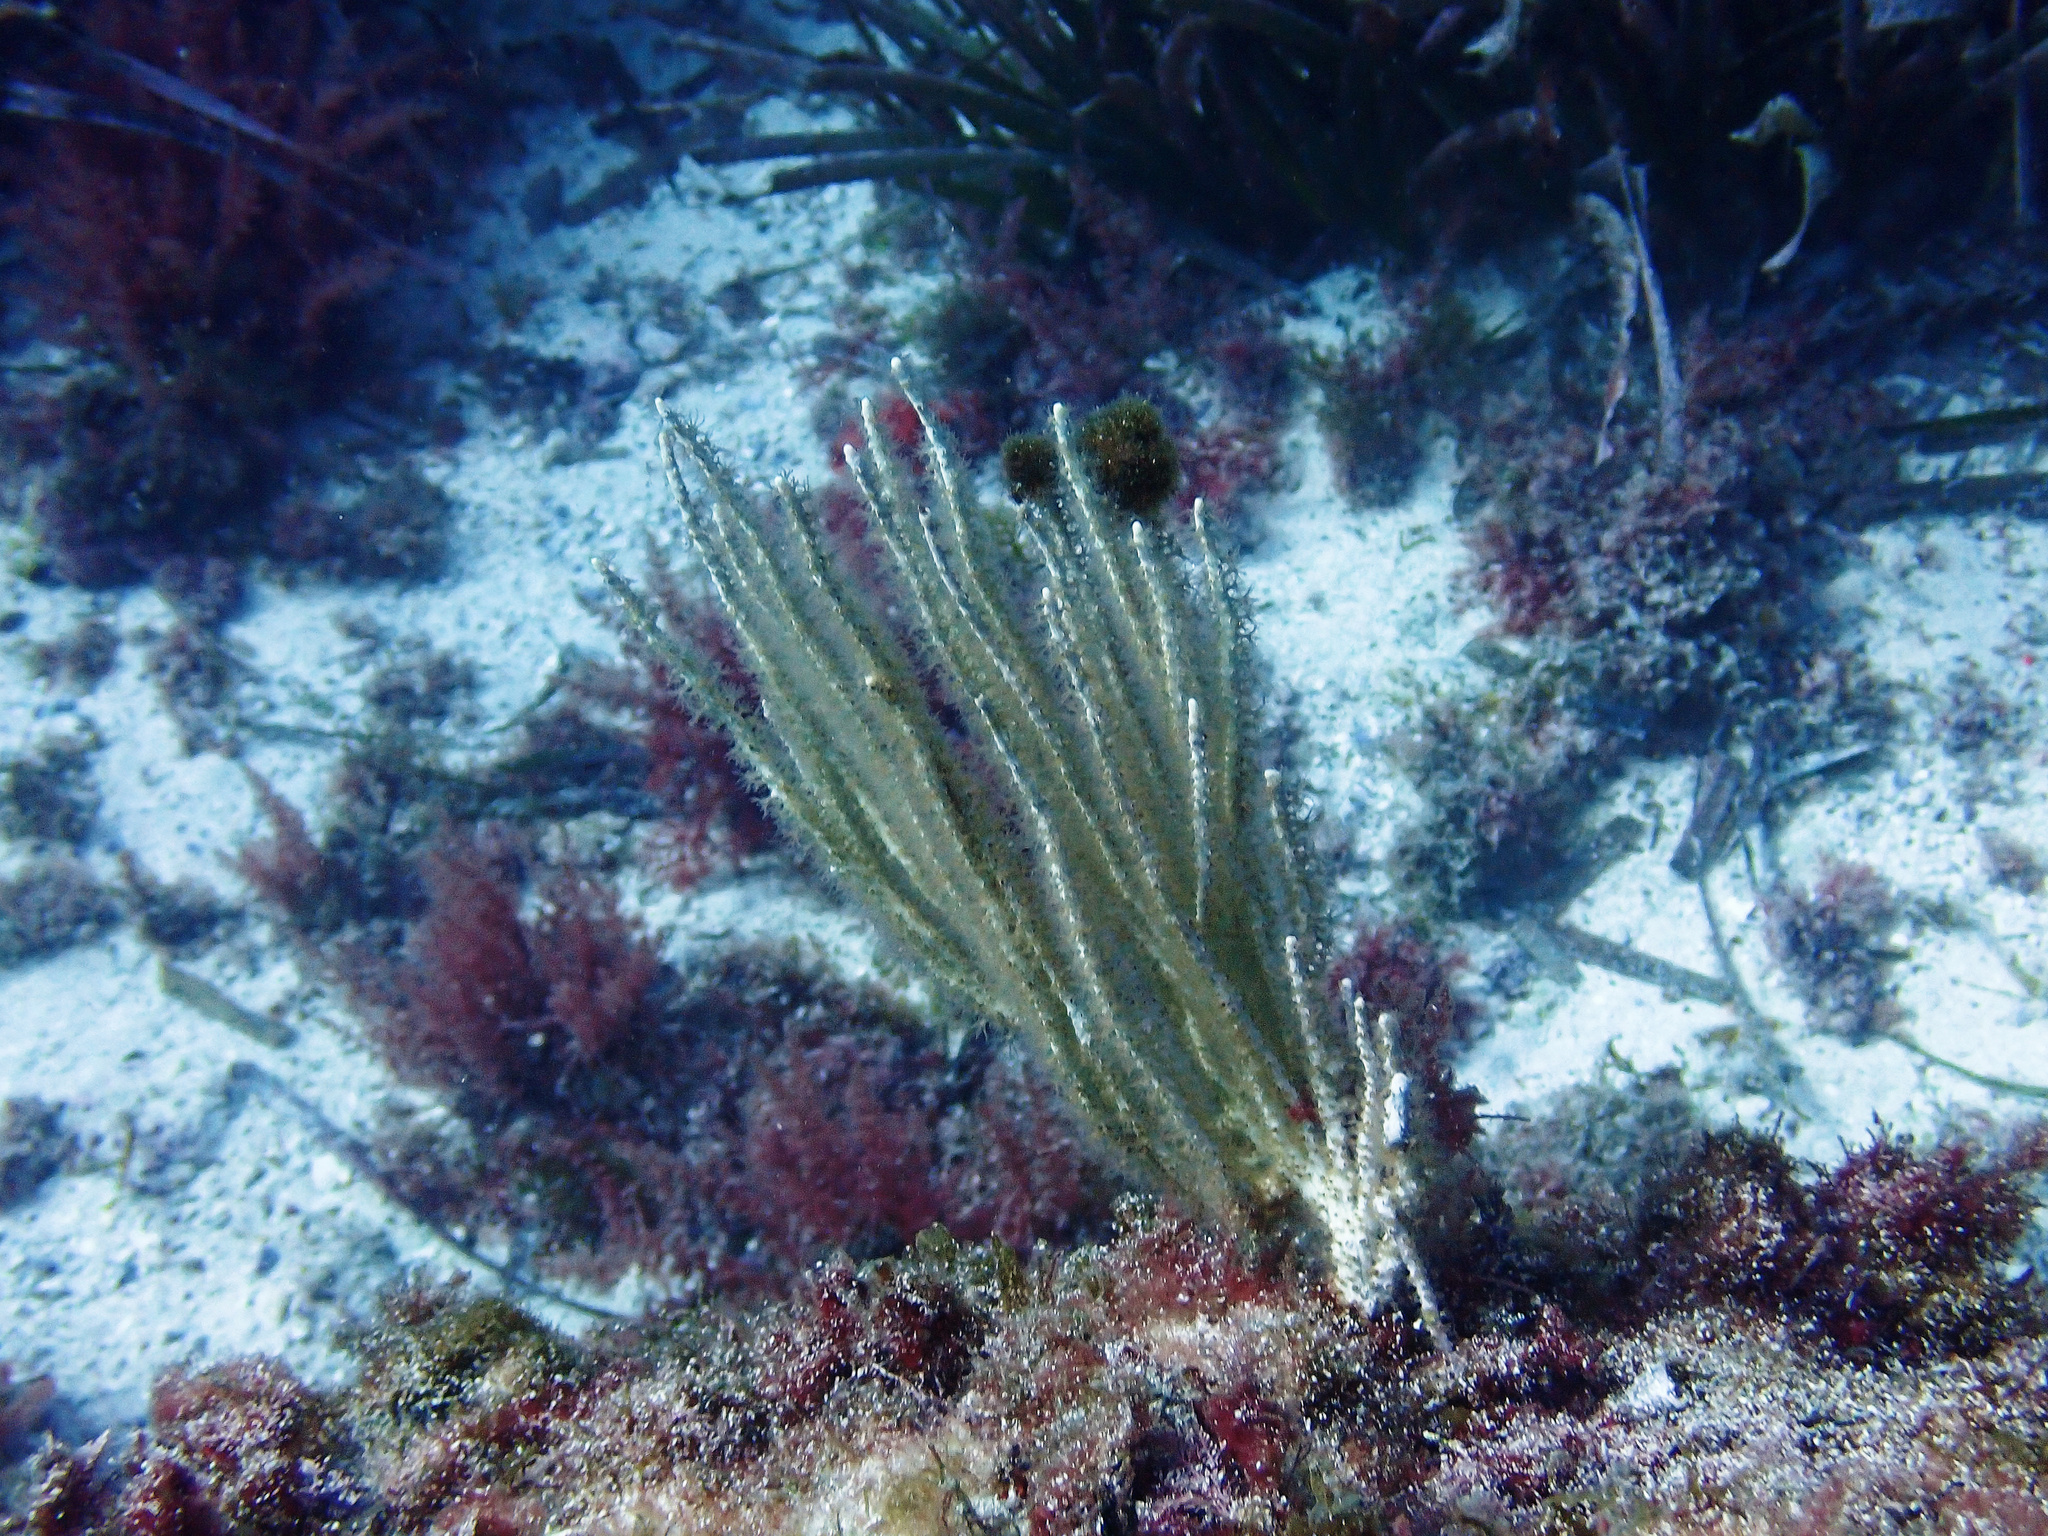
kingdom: Animalia
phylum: Cnidaria
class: Anthozoa
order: Malacalcyonacea
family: Eunicellidae
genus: Eunicella
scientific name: Eunicella singularis
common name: White horny coral
